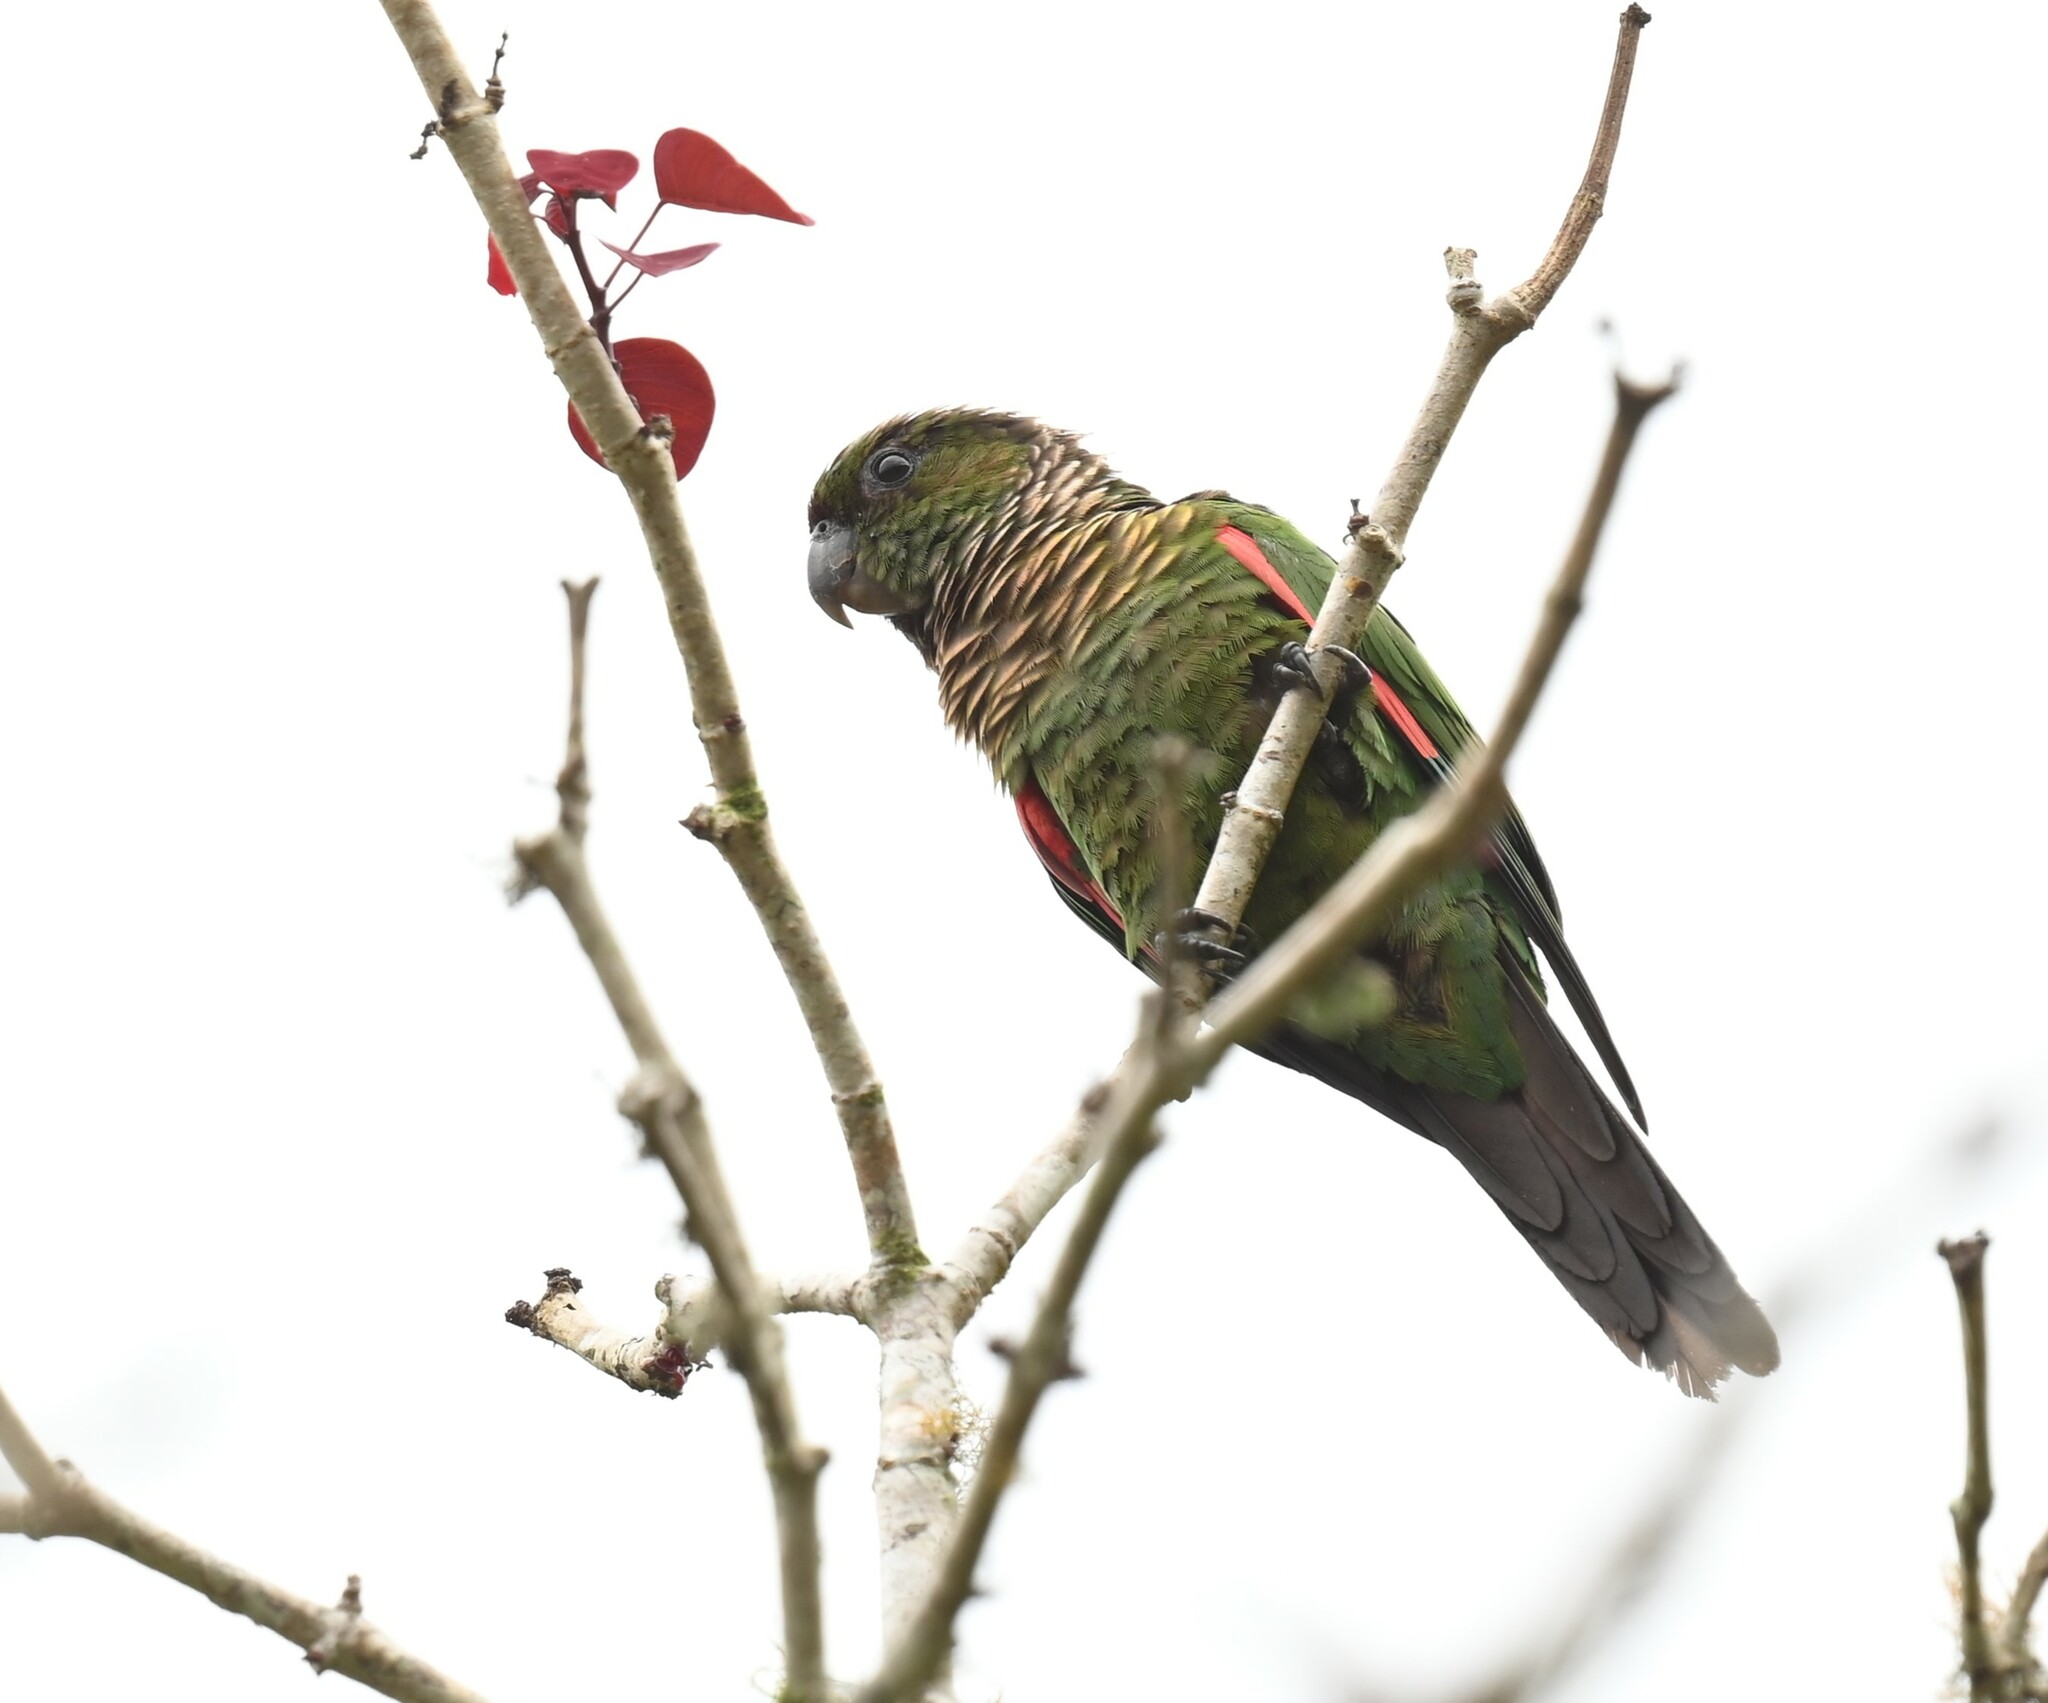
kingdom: Animalia
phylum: Chordata
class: Aves
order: Psittaciformes
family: Psittacidae
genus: Pyrrhura
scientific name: Pyrrhura melanura
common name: Maroon-tailed parakeet
